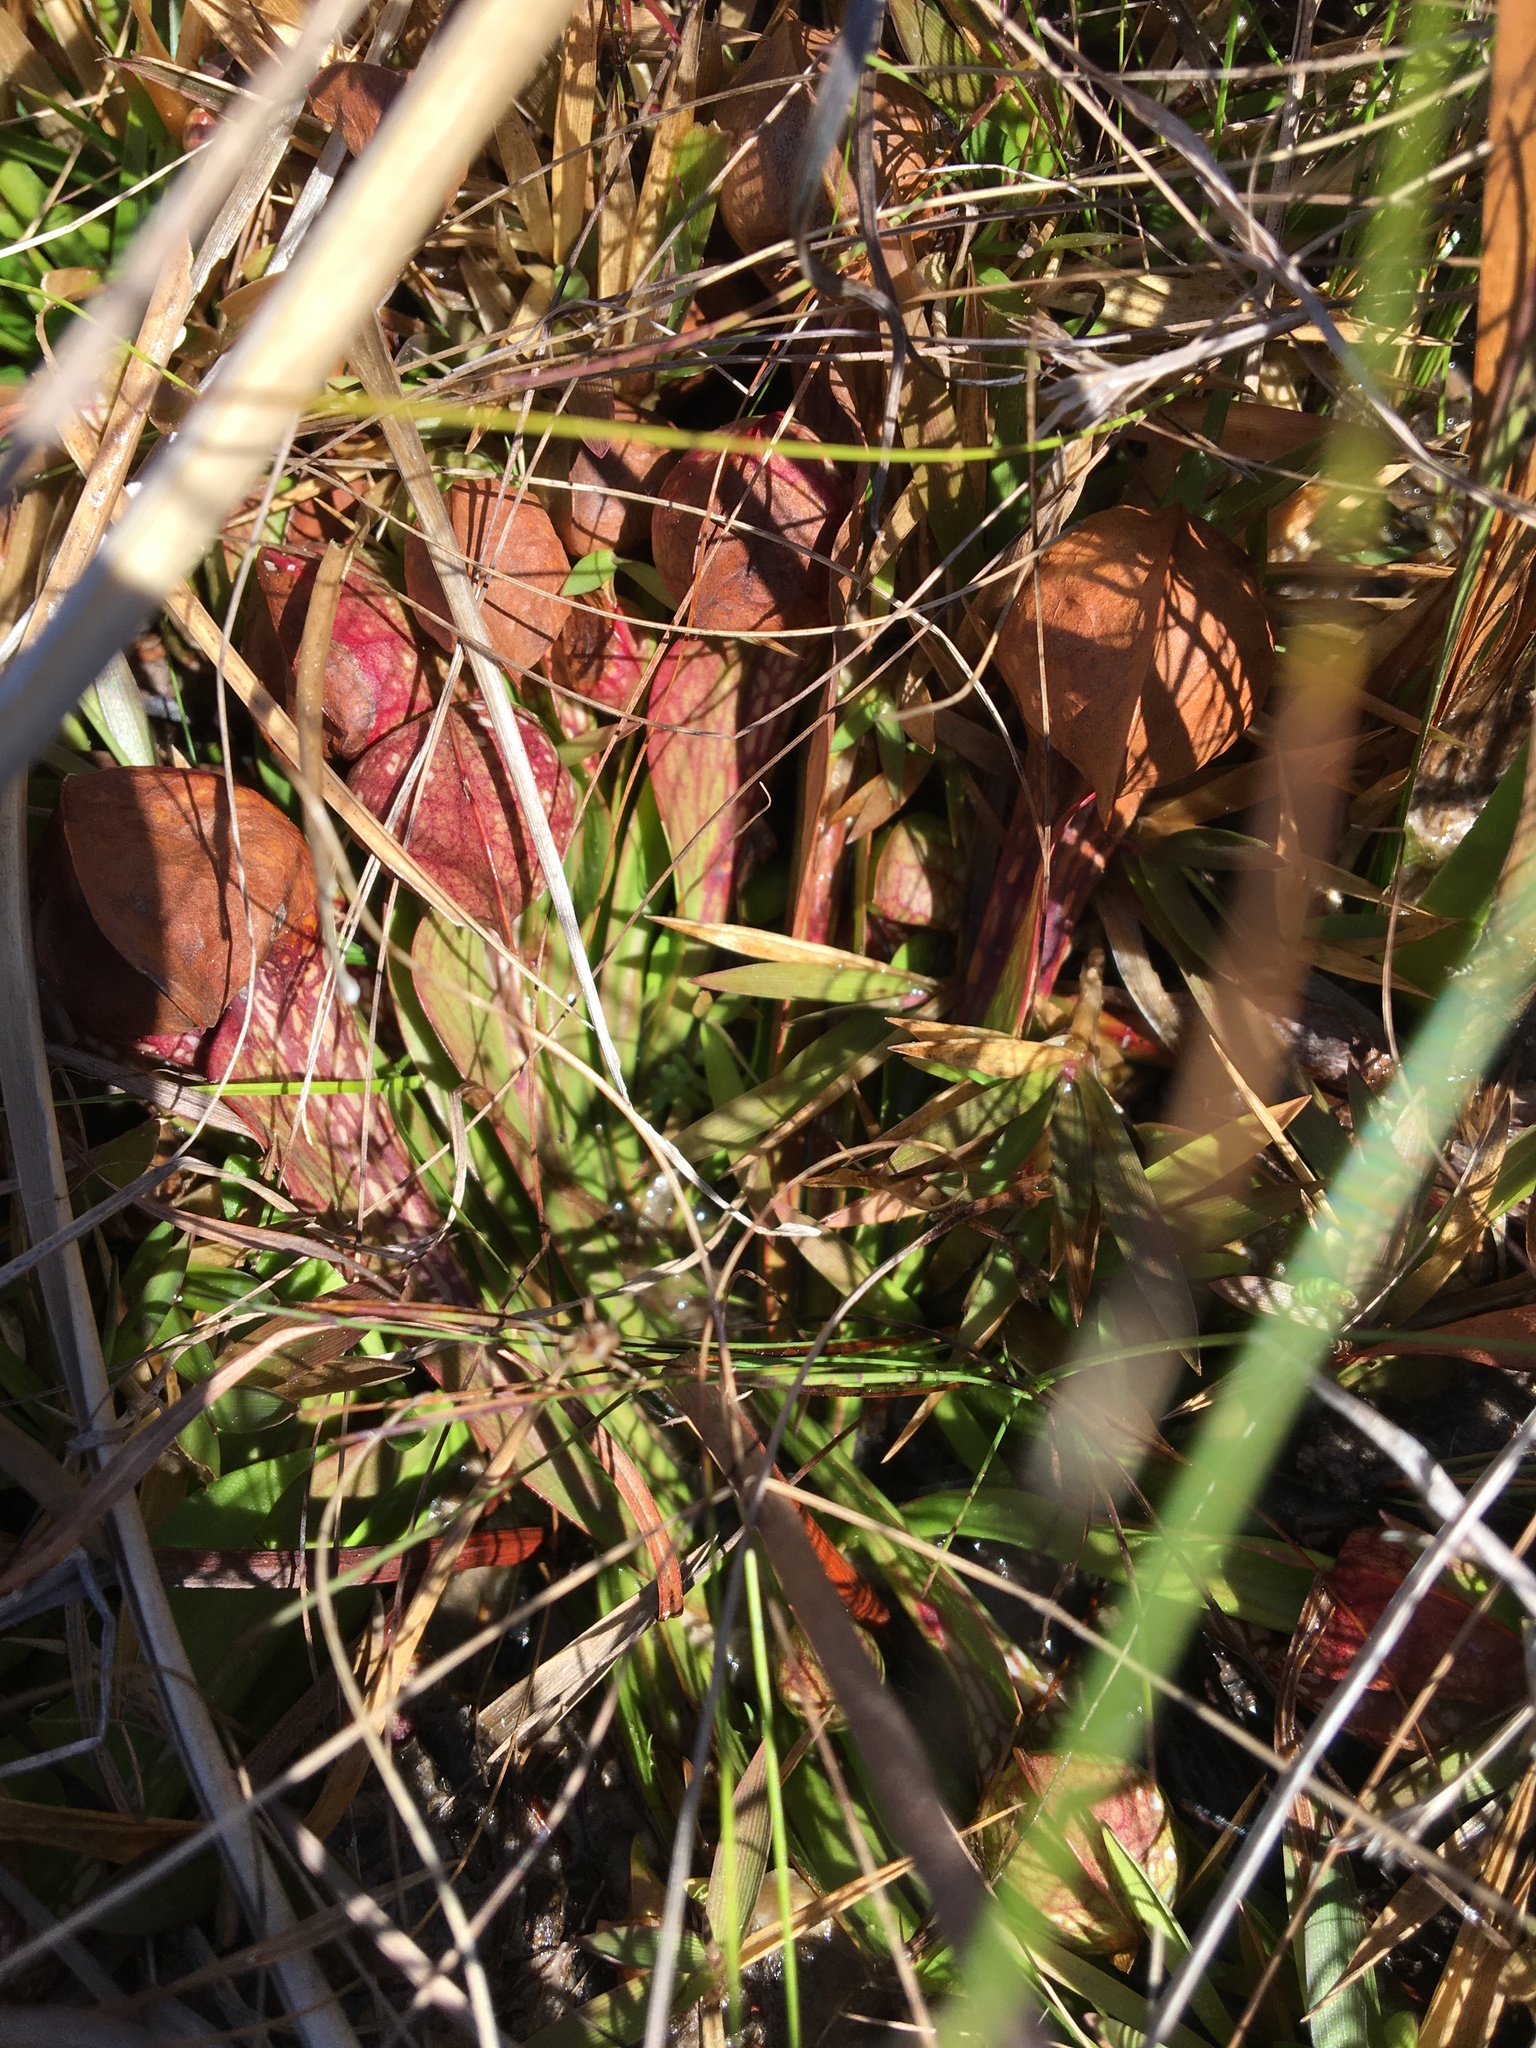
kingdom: Plantae
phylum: Tracheophyta
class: Magnoliopsida
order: Ericales
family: Sarraceniaceae
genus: Sarracenia
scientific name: Sarracenia psittacina
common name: Parrot pitcherplant
